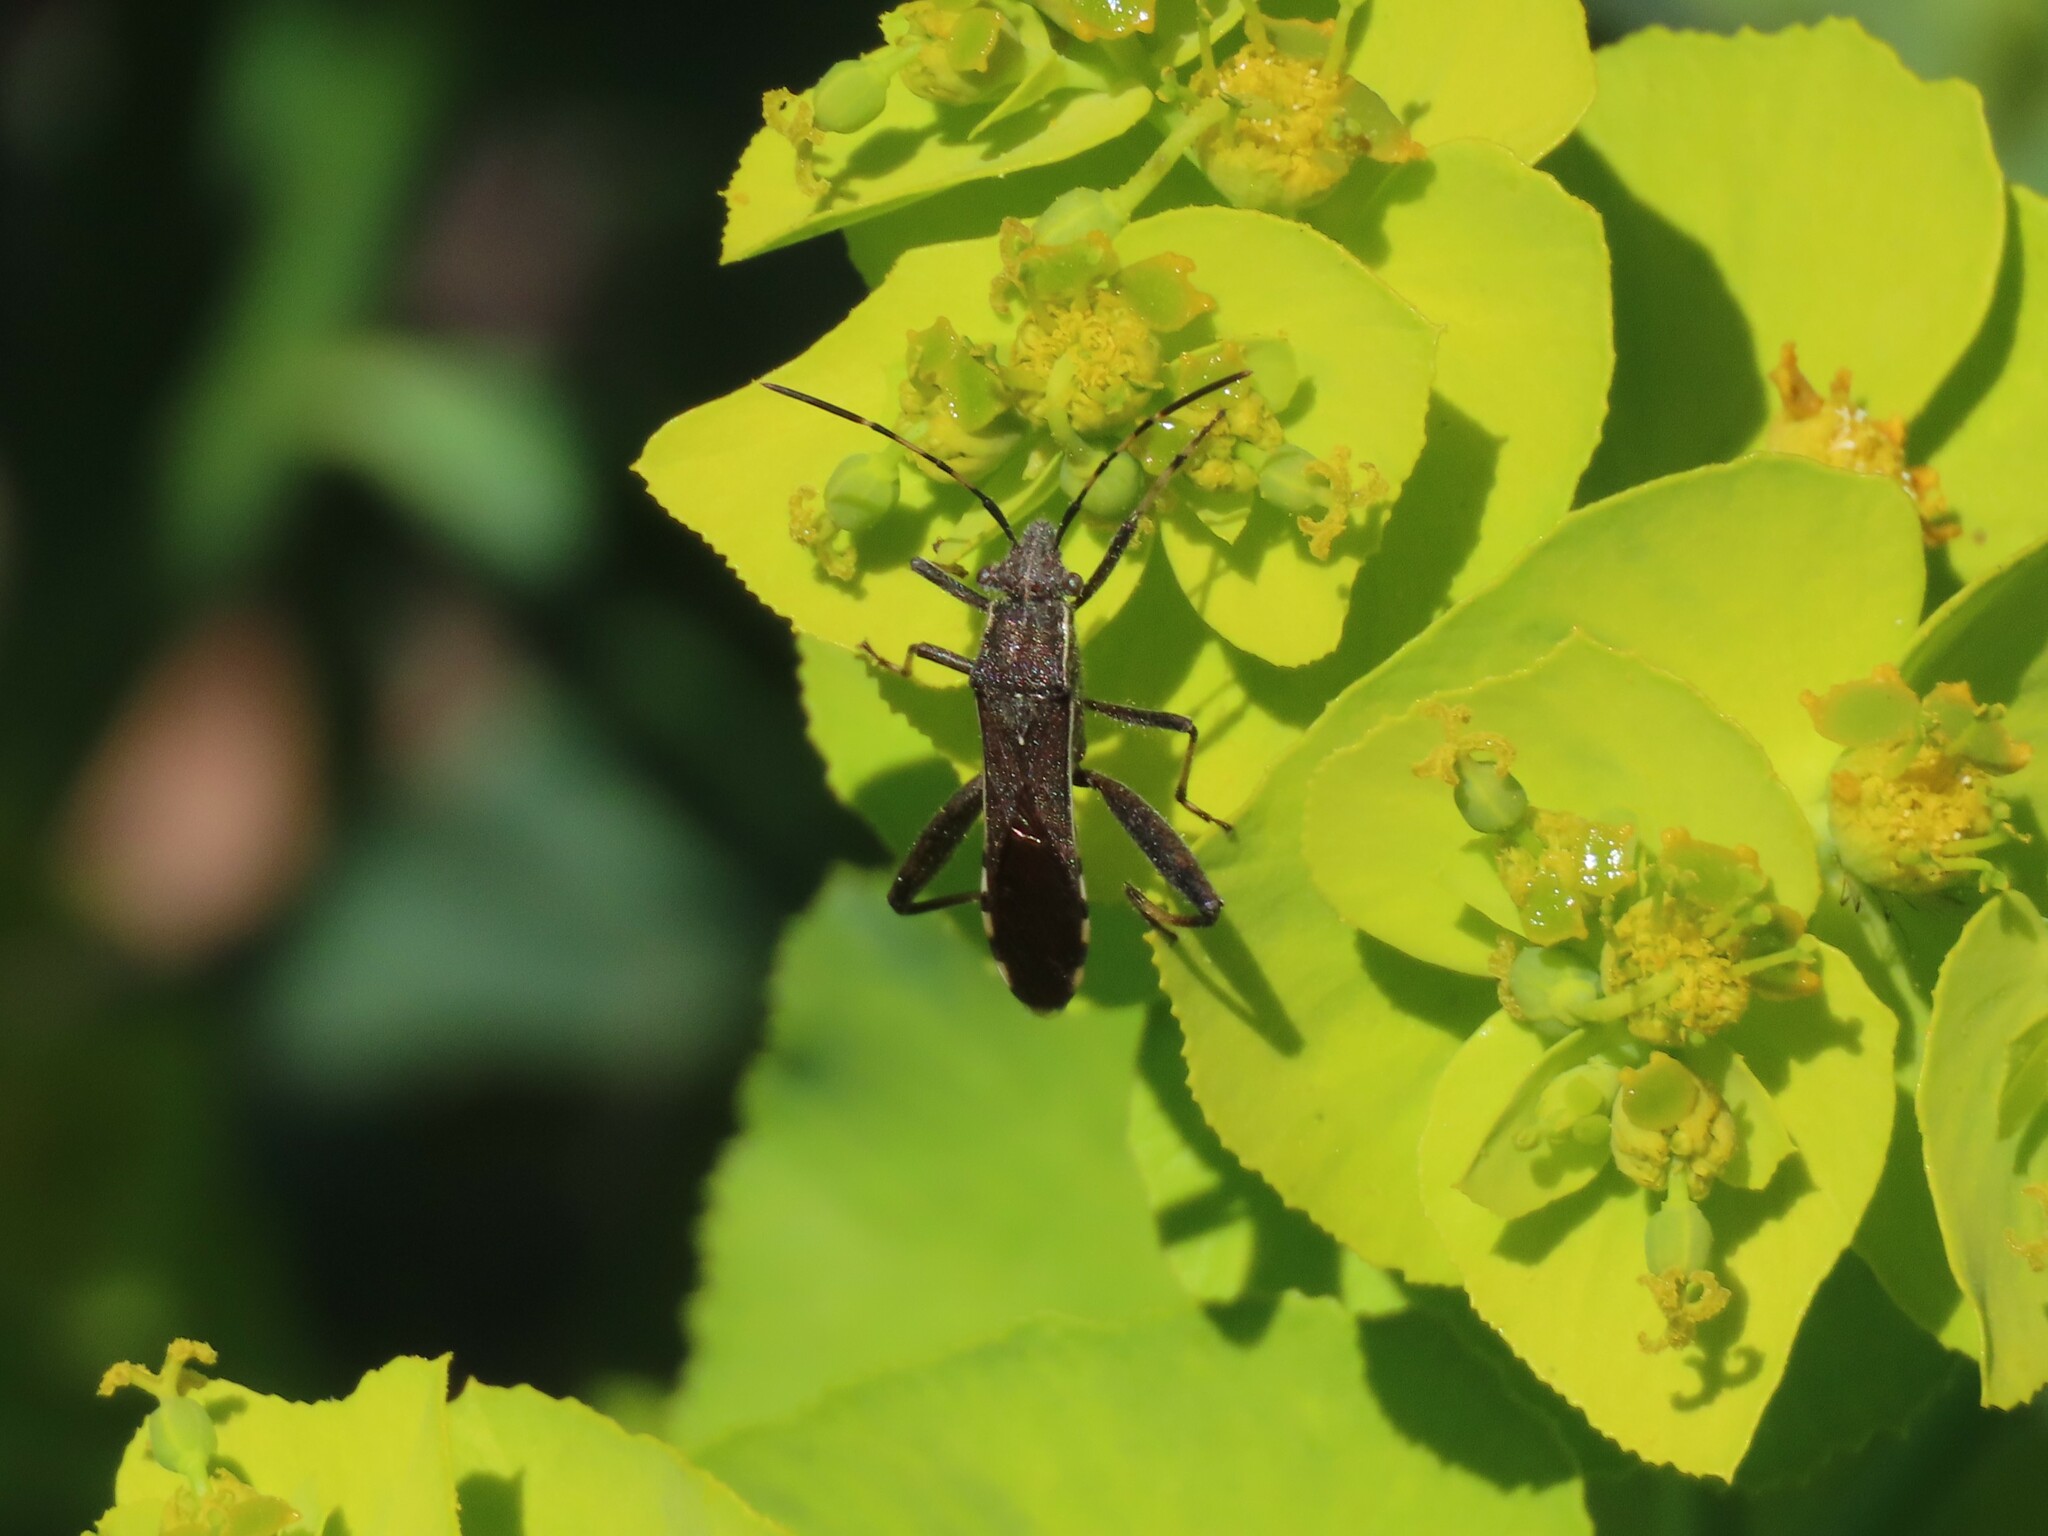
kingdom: Animalia
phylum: Arthropoda
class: Insecta
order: Hemiptera
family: Alydidae
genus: Camptopus
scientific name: Camptopus lateralis
